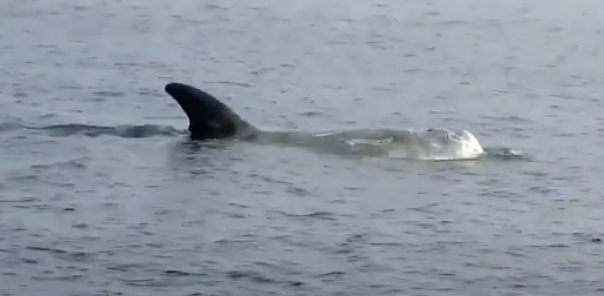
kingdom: Animalia
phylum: Chordata
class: Mammalia
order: Cetacea
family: Delphinidae
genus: Grampus
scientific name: Grampus griseus
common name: Risso's dolphin
